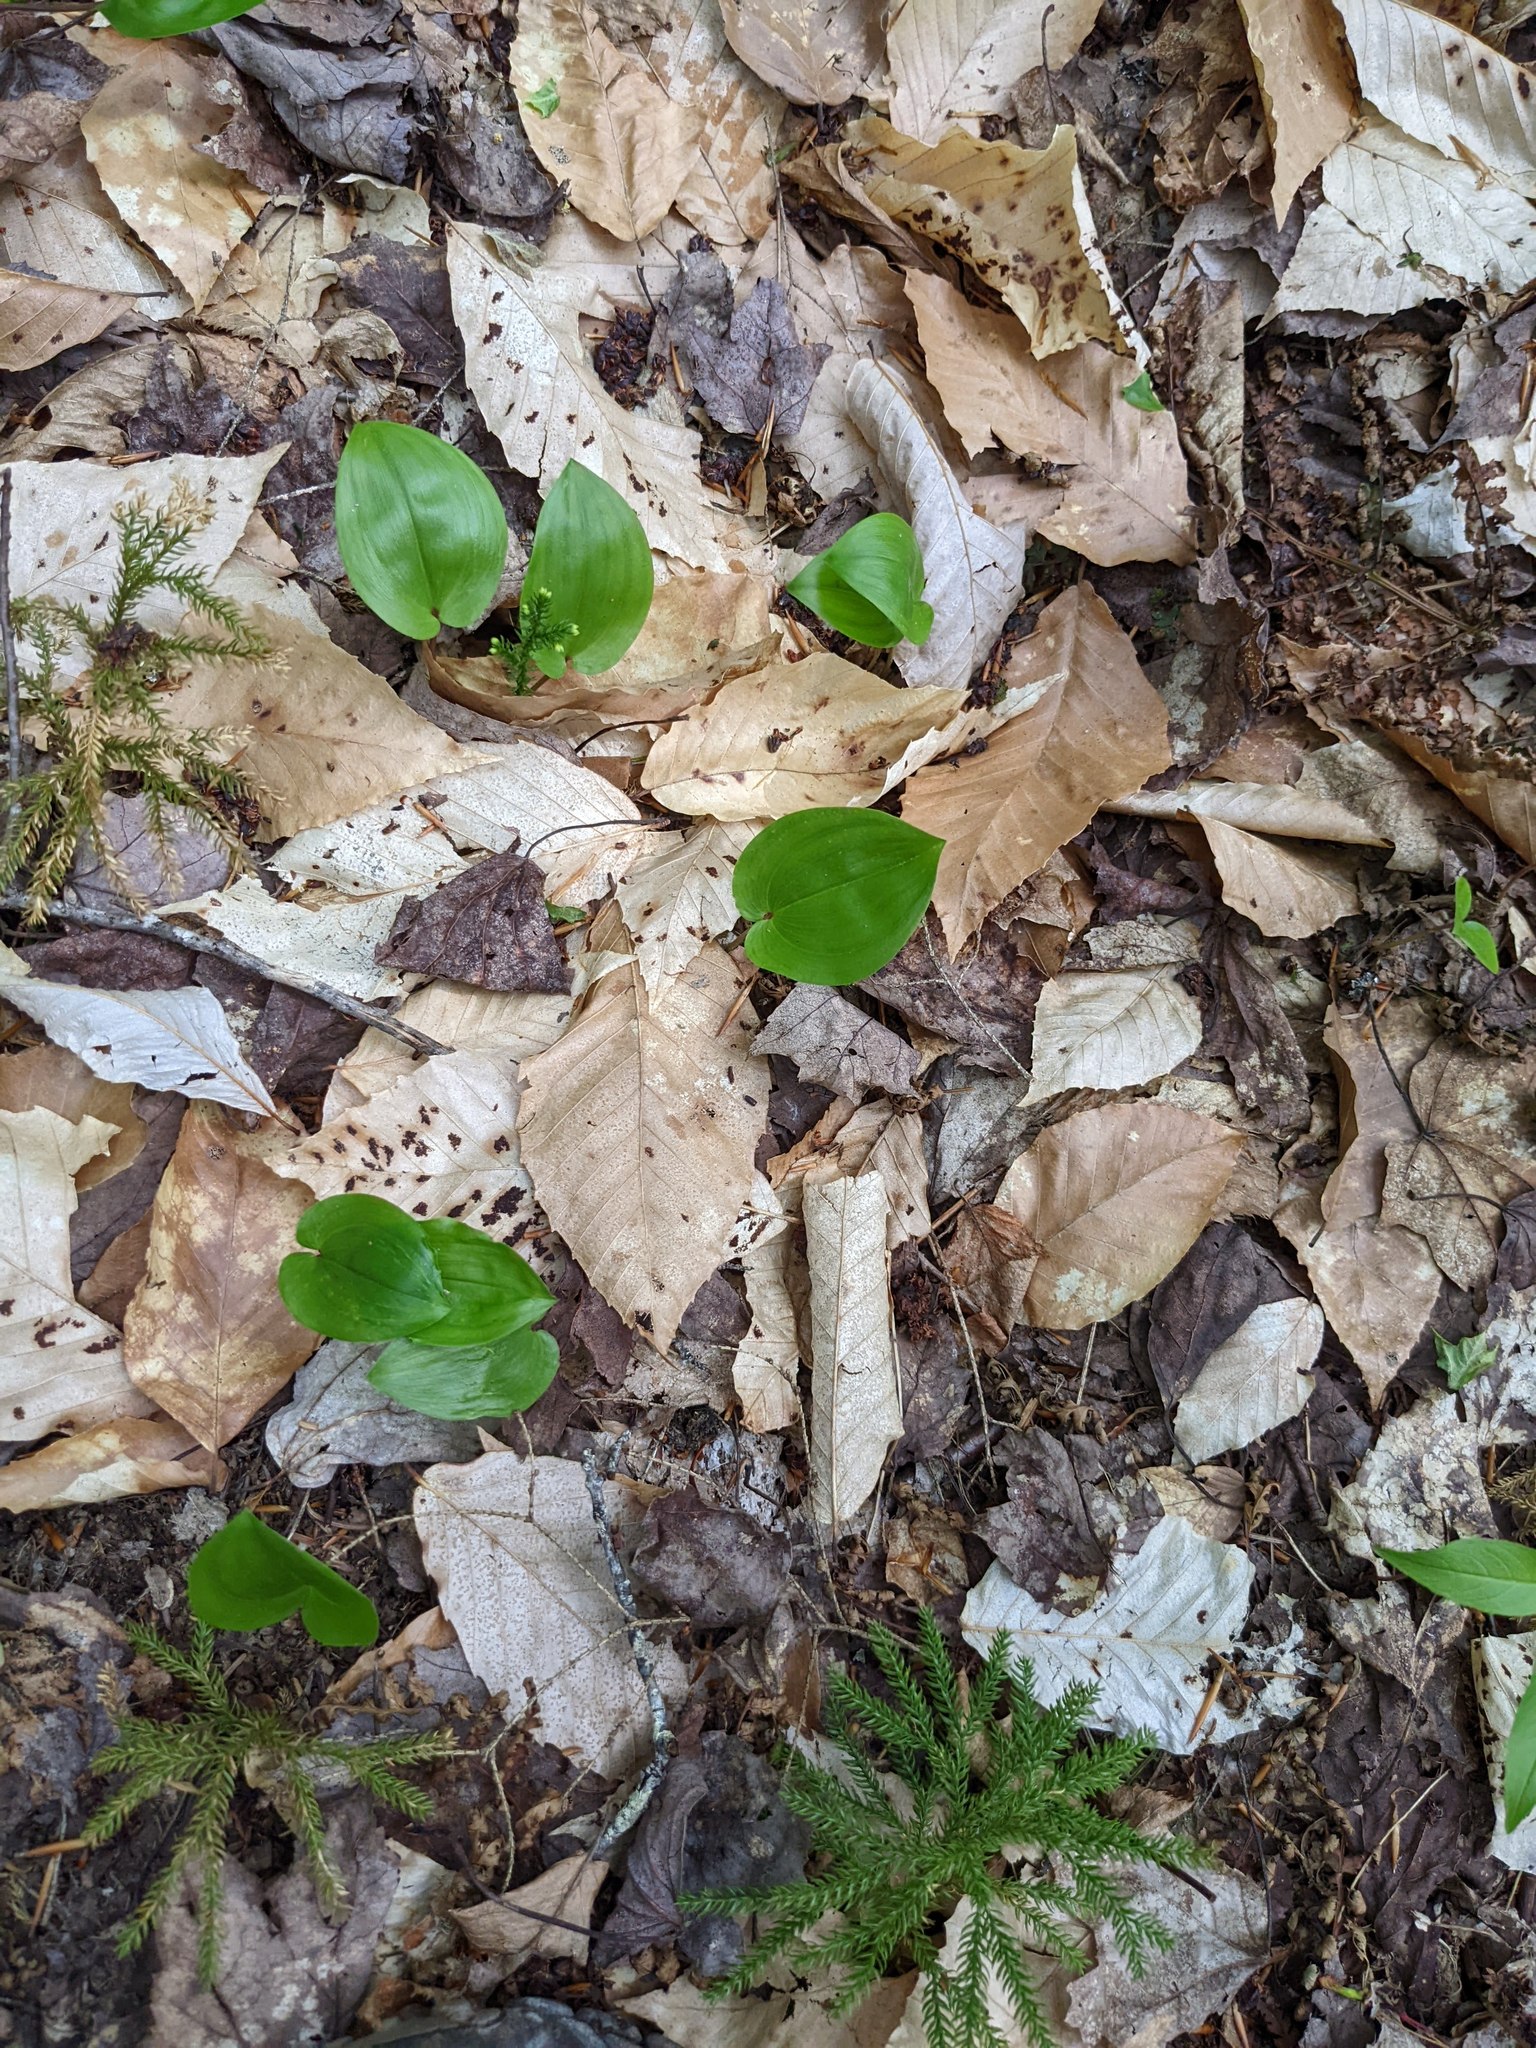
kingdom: Plantae
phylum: Tracheophyta
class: Magnoliopsida
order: Fagales
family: Fagaceae
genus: Fagus
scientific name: Fagus grandifolia
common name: American beech
